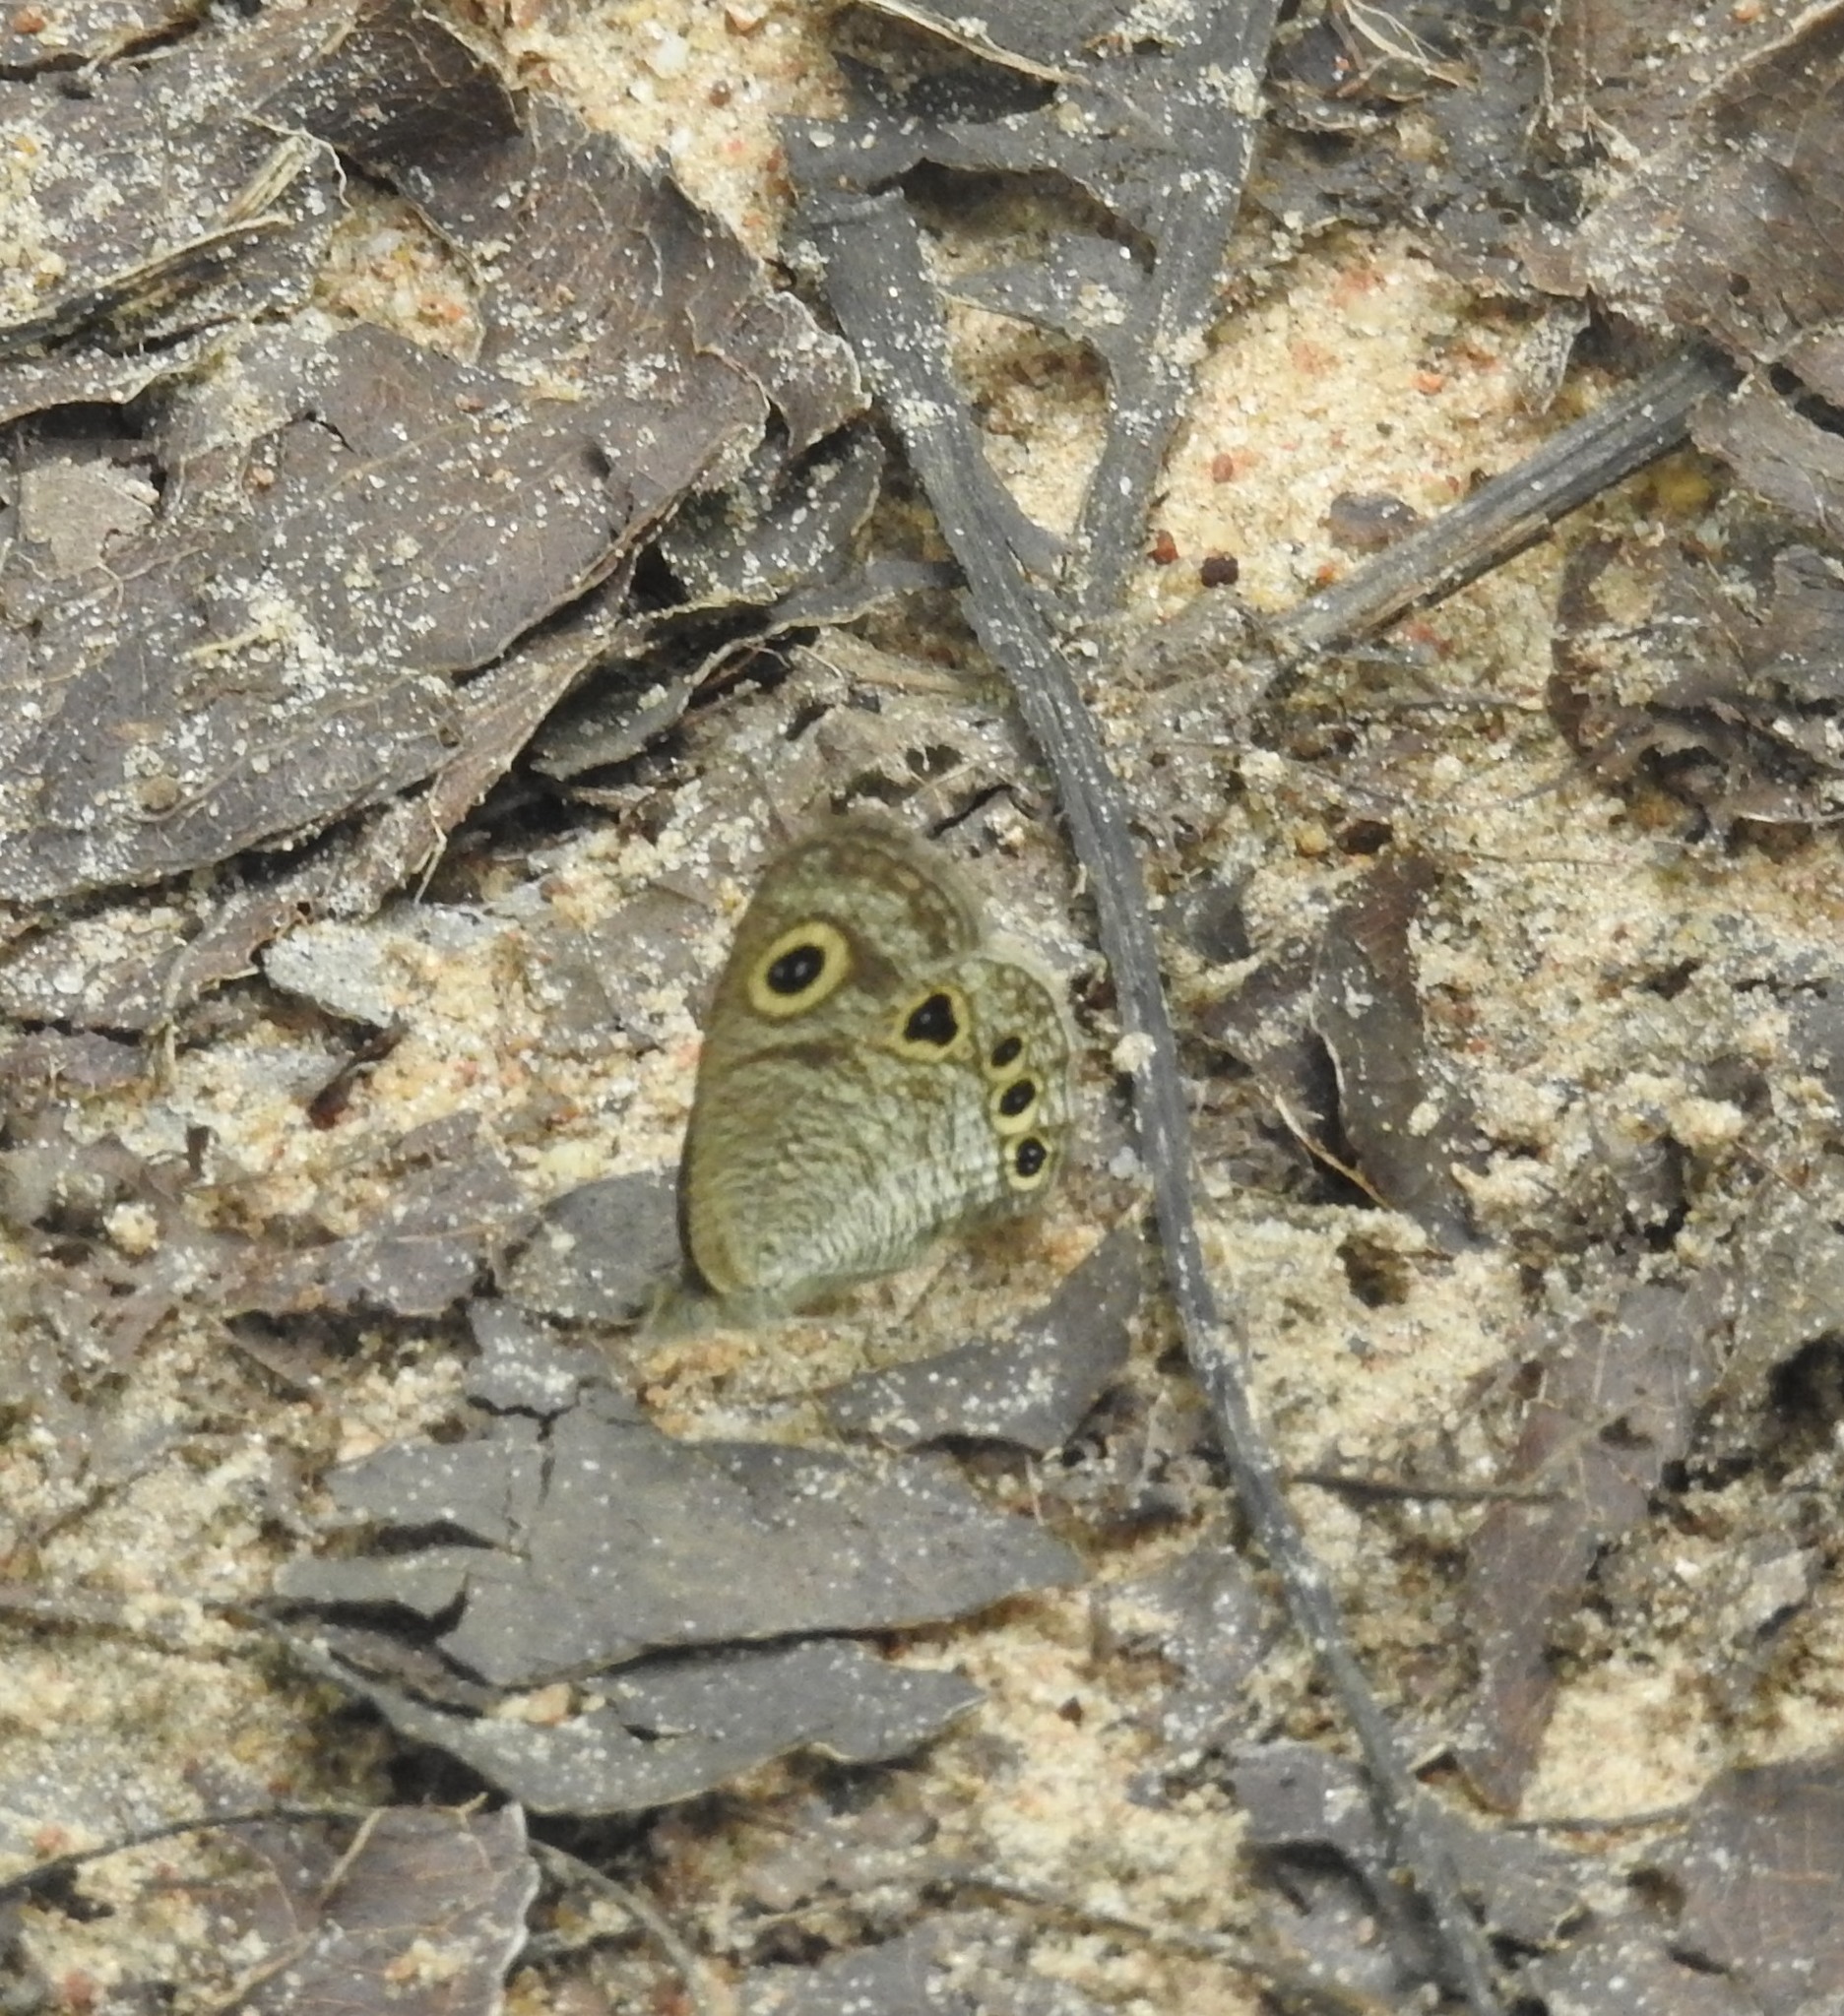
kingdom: Animalia
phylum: Arthropoda
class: Insecta
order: Lepidoptera
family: Nymphalidae
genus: Ypthima
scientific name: Ypthima huebneri
